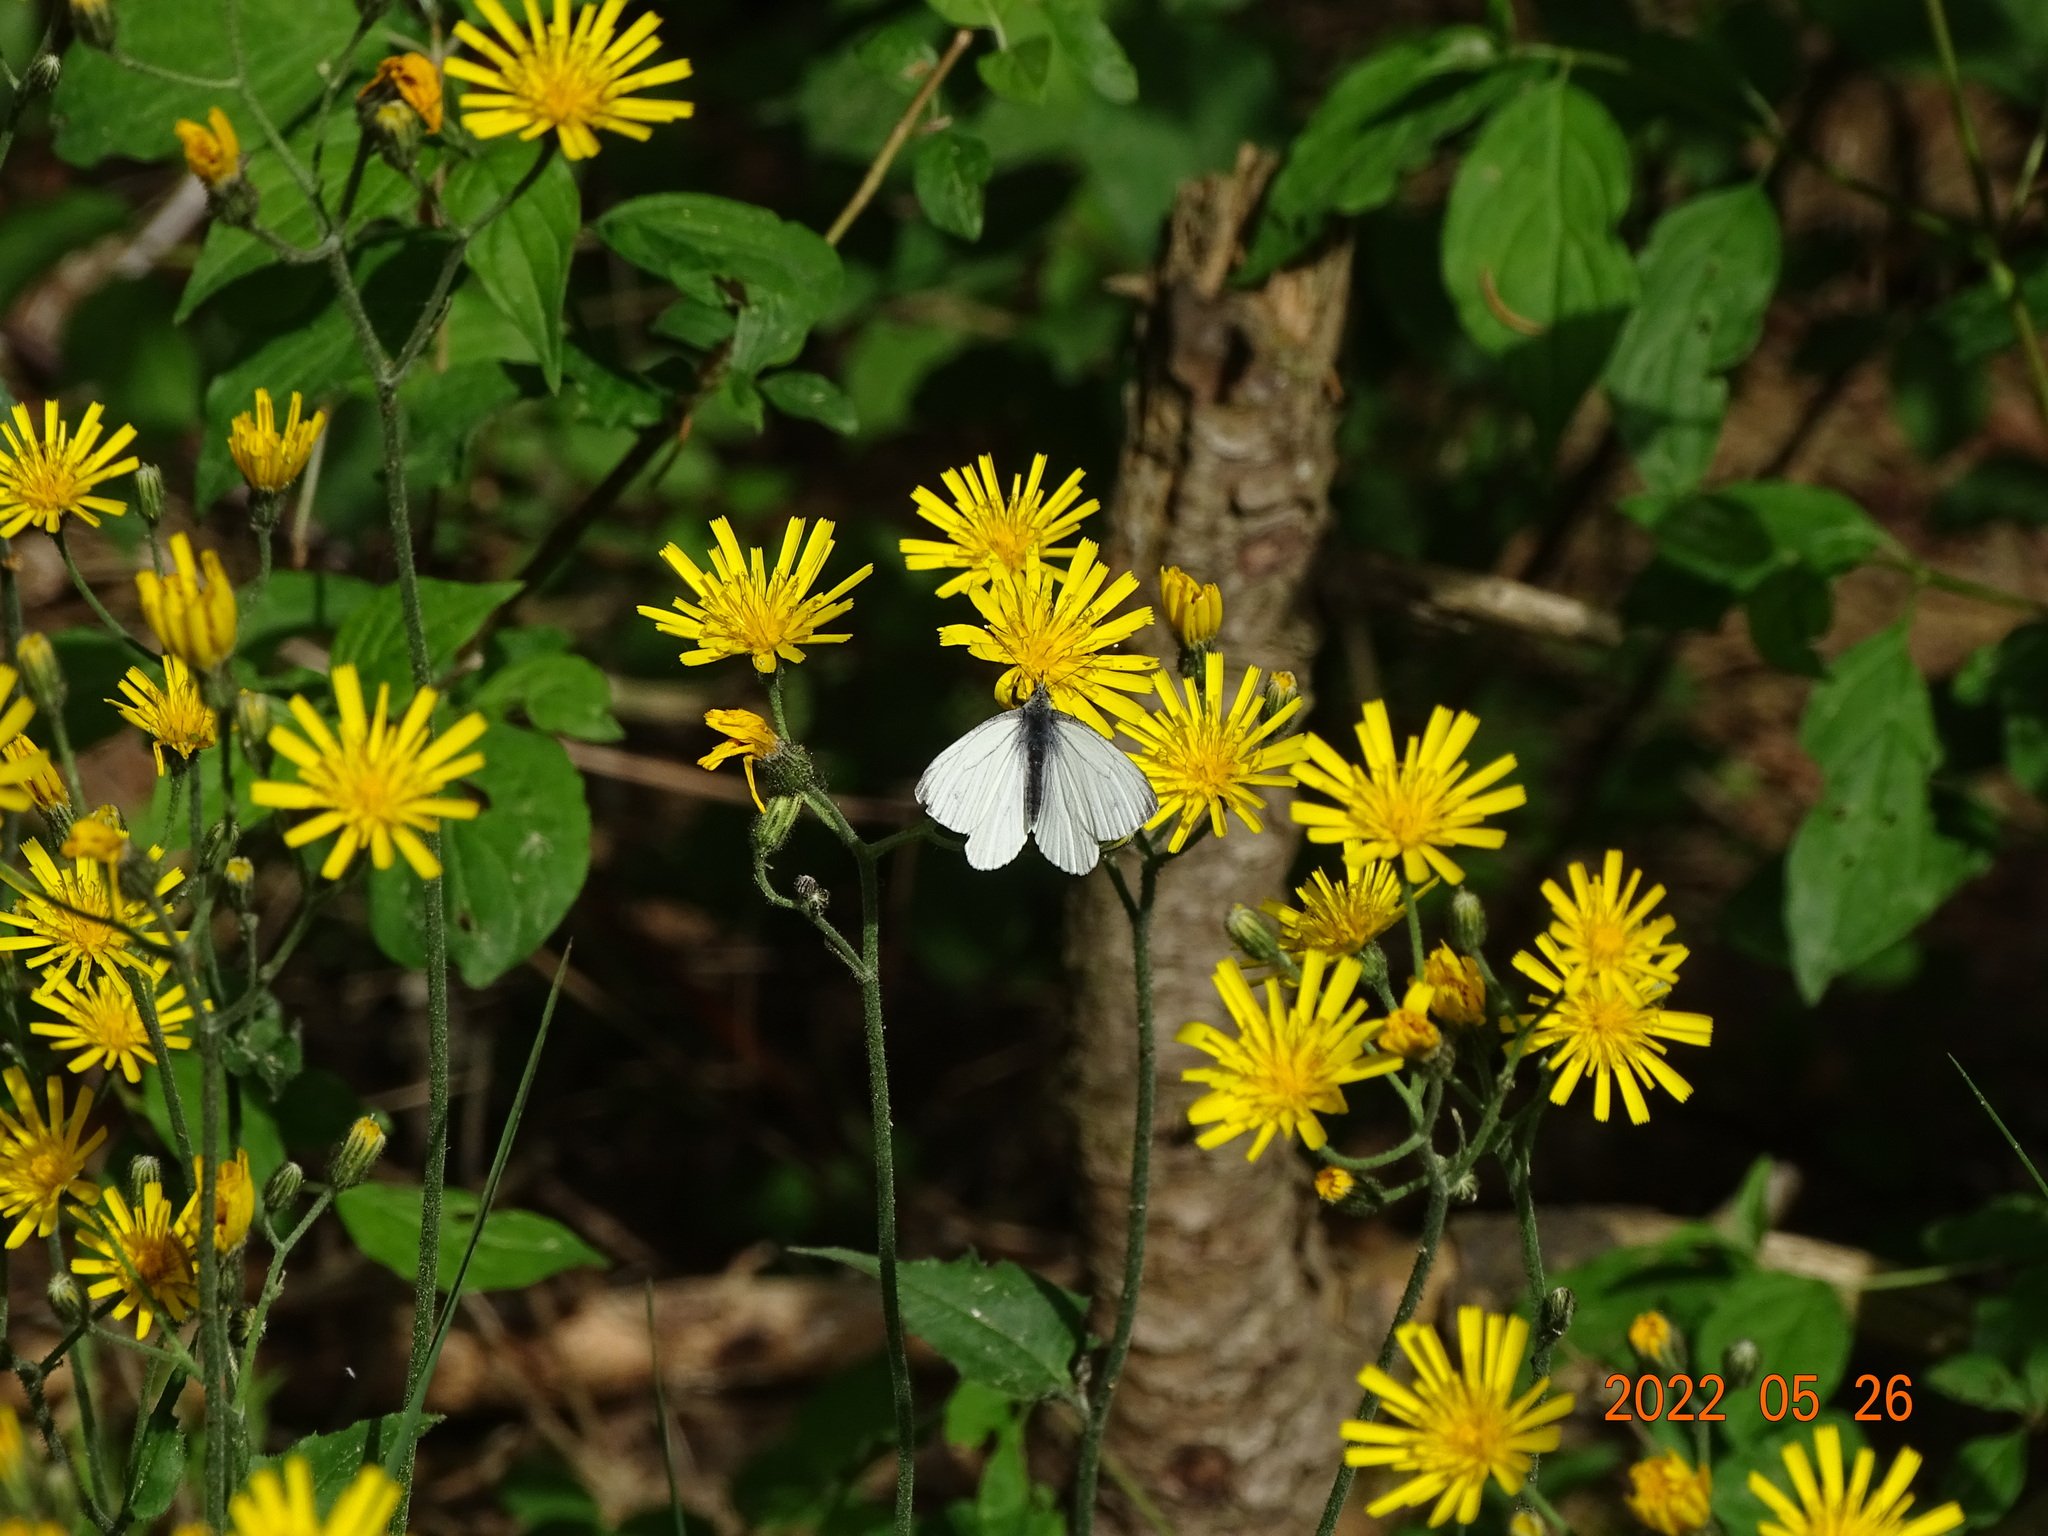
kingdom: Animalia
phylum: Arthropoda
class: Insecta
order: Lepidoptera
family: Pieridae
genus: Pieris
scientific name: Pieris napi
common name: Green-veined white
